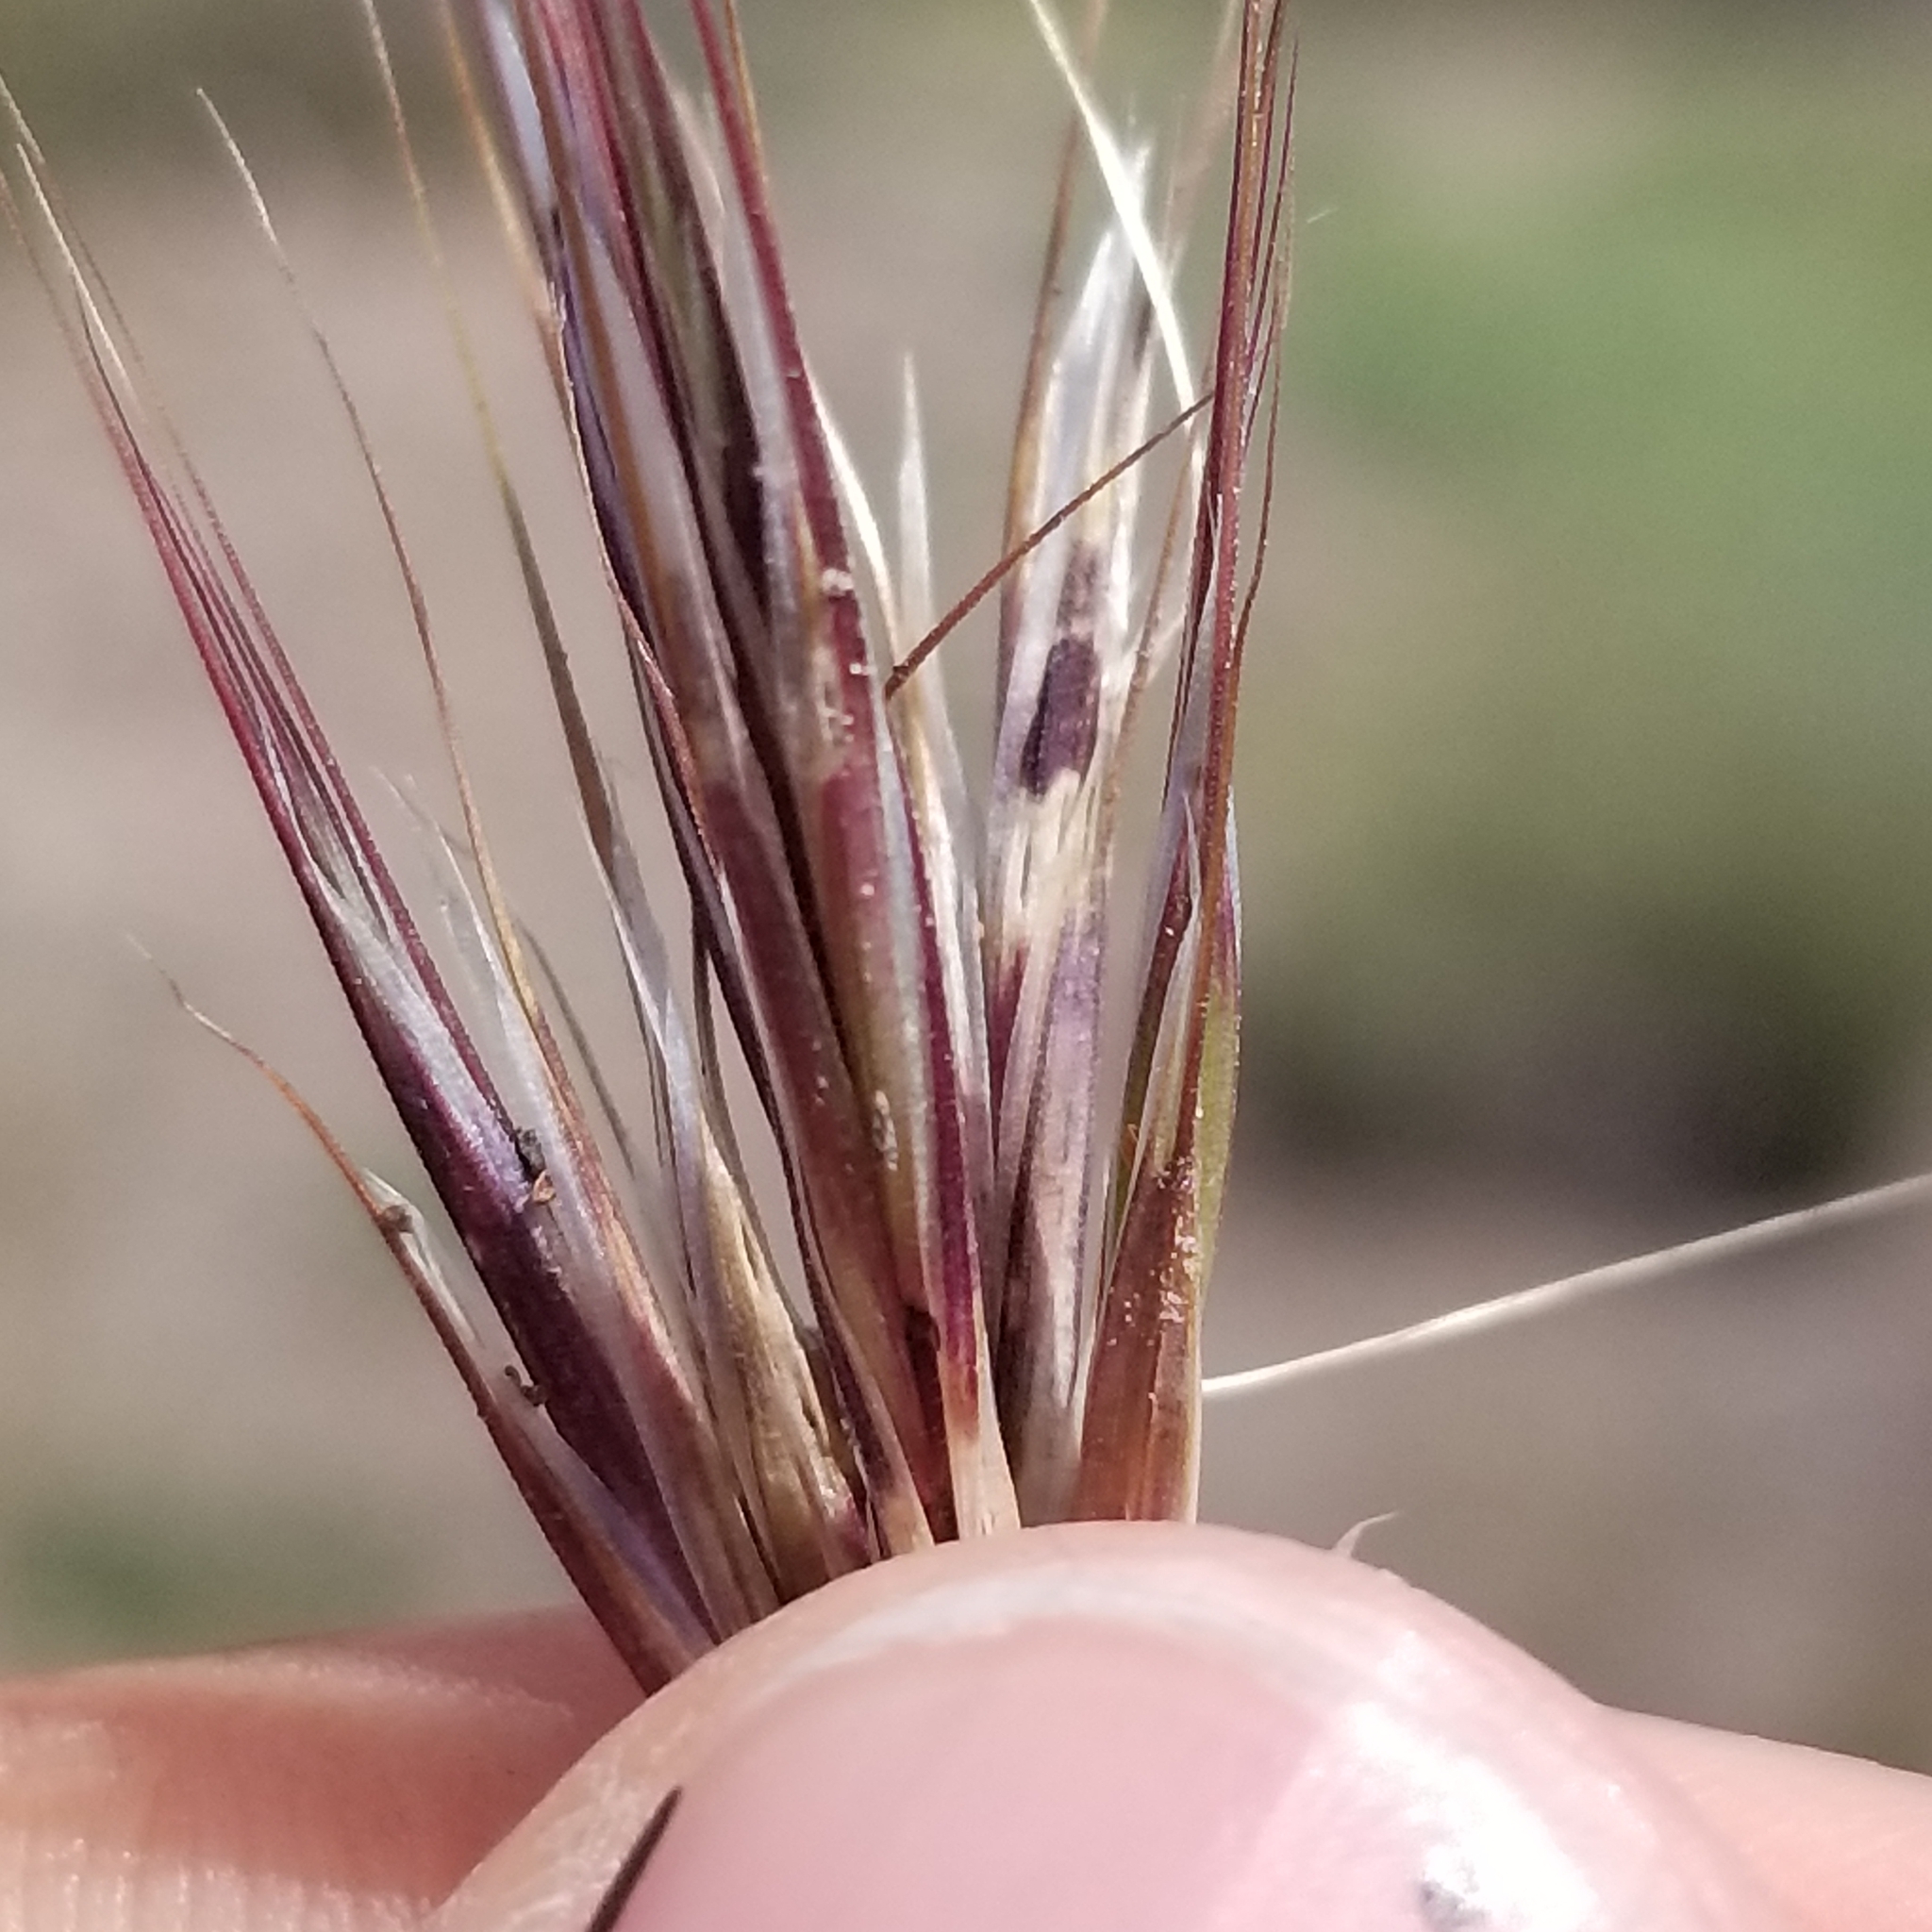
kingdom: Plantae
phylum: Tracheophyta
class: Liliopsida
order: Poales
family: Poaceae
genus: Bromus
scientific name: Bromus rubens
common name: Red brome
